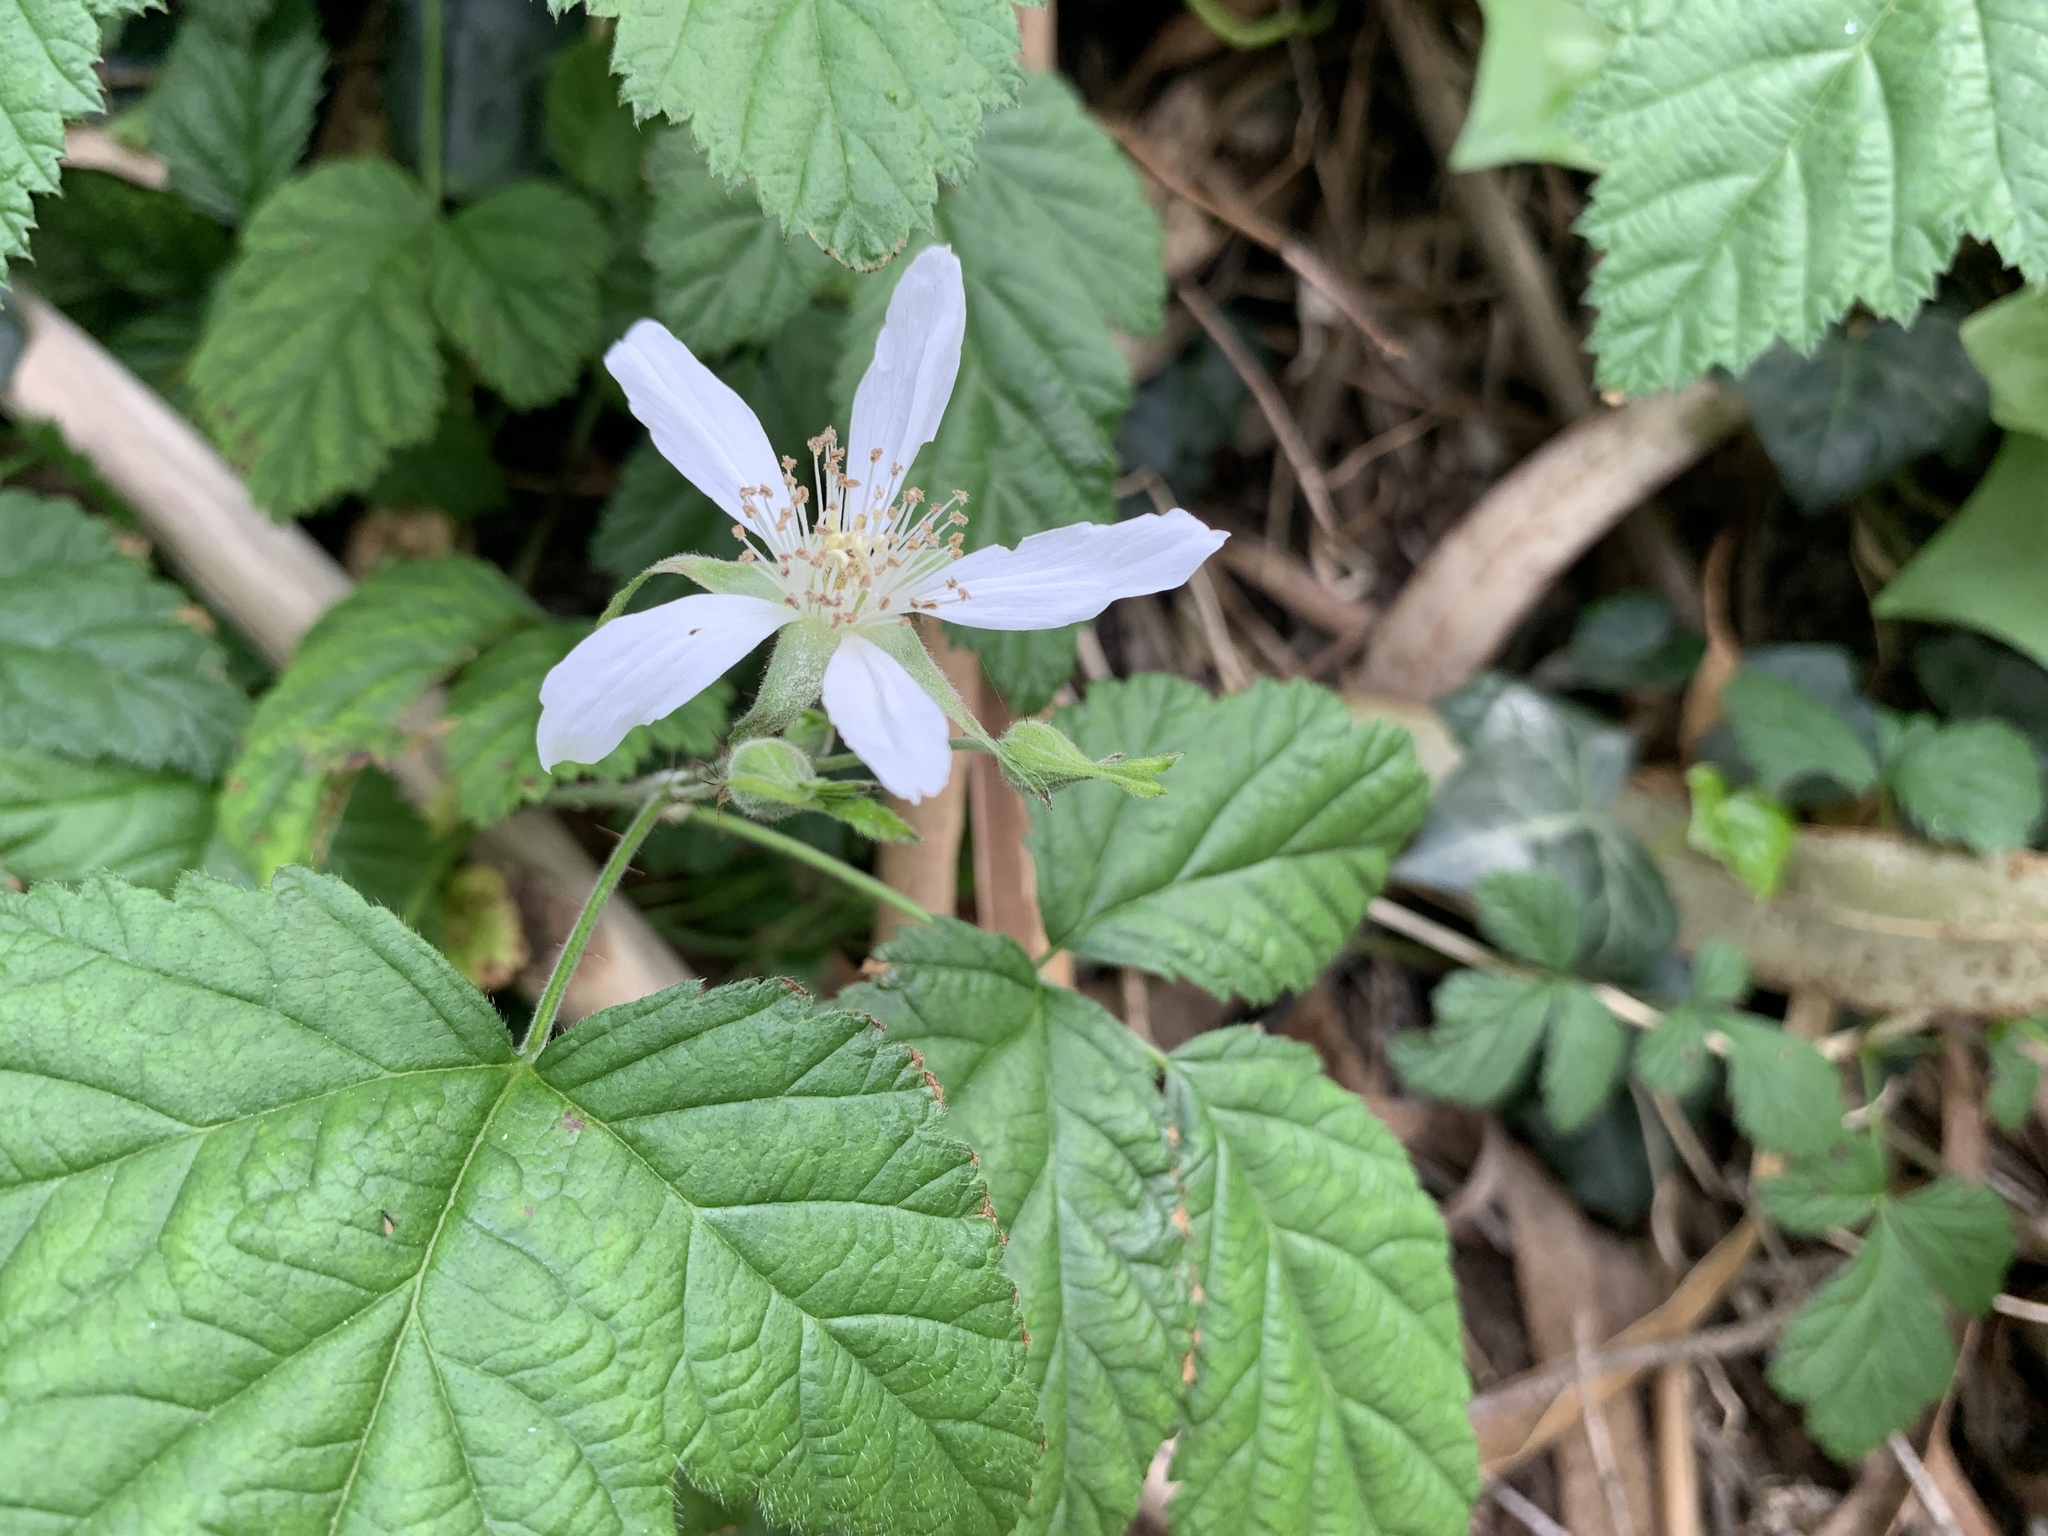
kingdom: Plantae
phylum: Tracheophyta
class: Magnoliopsida
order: Rosales
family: Rosaceae
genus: Rubus
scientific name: Rubus ursinus
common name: Pacific blackberry
